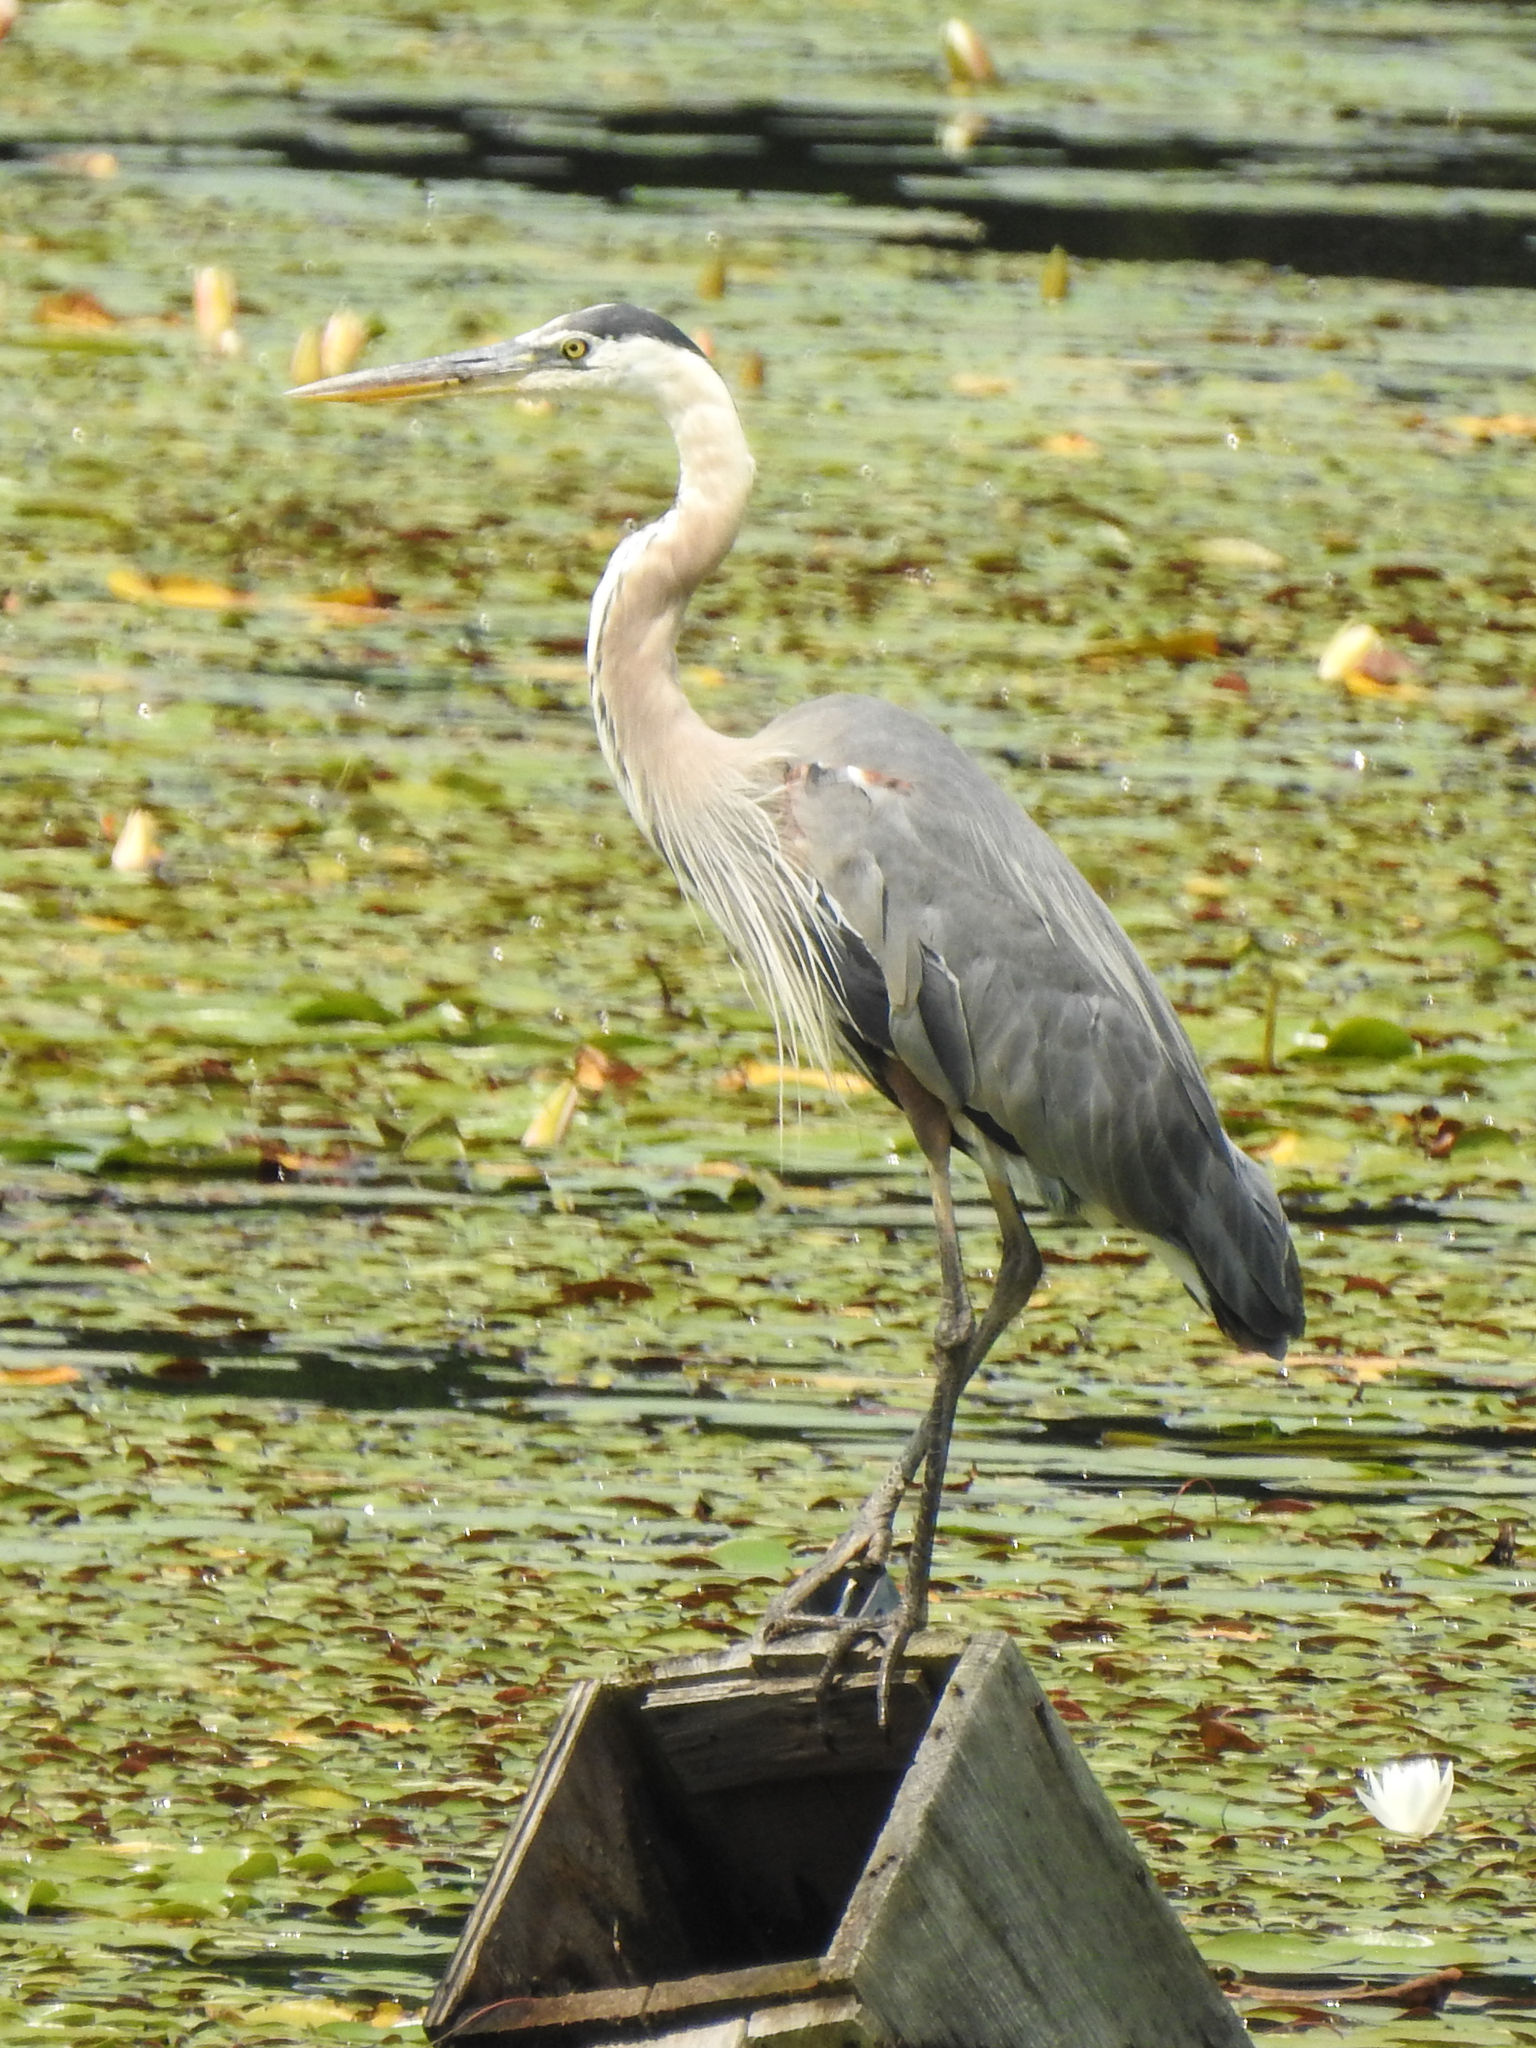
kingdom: Animalia
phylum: Chordata
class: Aves
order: Pelecaniformes
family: Ardeidae
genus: Ardea
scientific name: Ardea herodias
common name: Great blue heron
